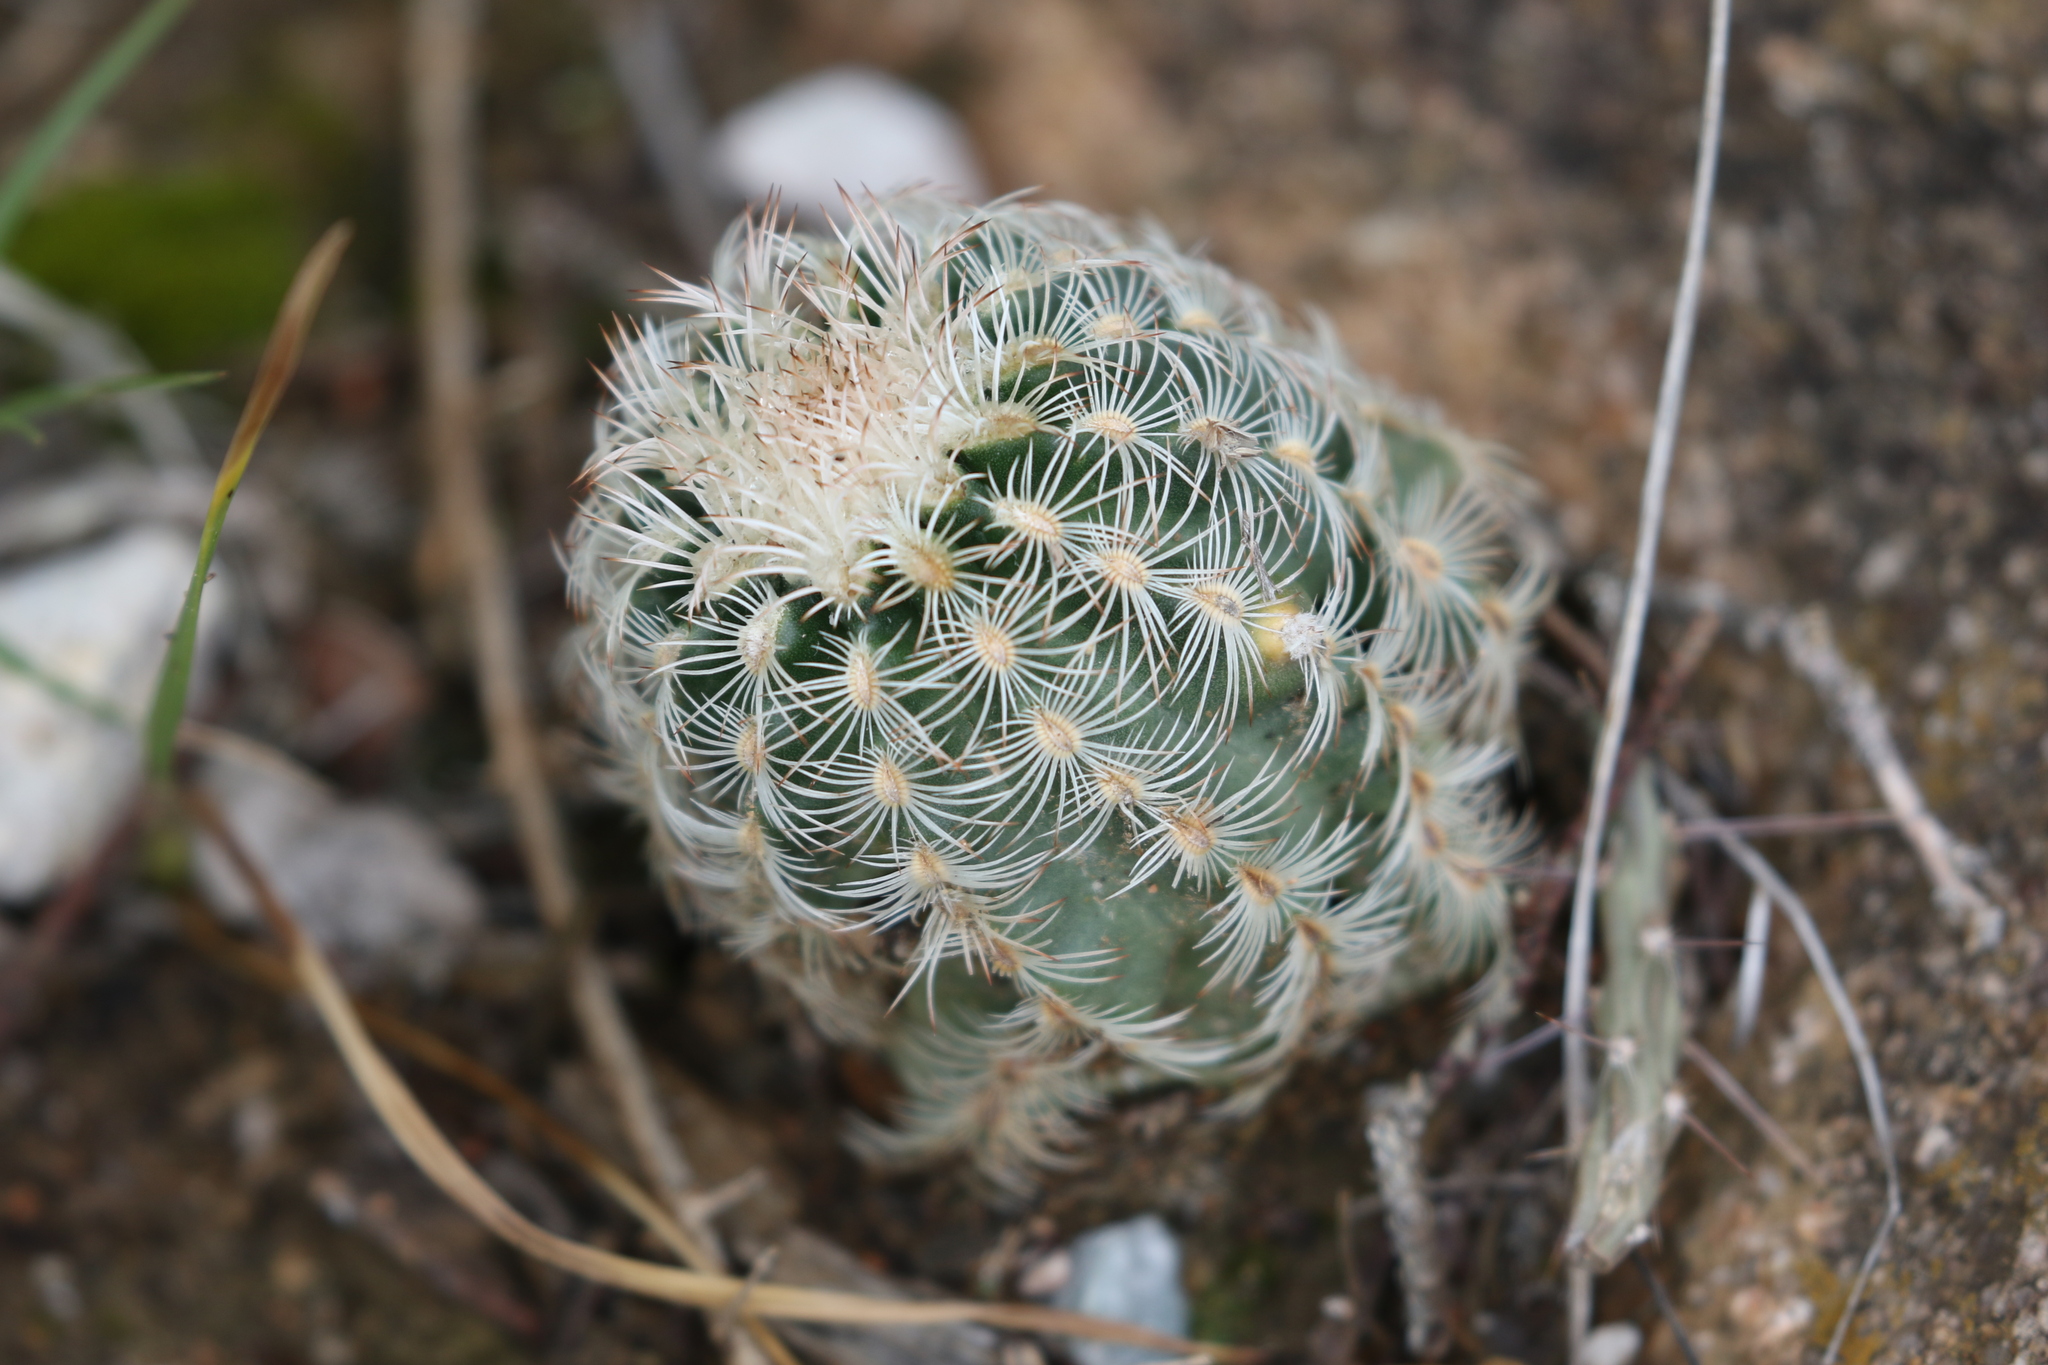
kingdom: Plantae
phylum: Tracheophyta
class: Magnoliopsida
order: Caryophyllales
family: Cactaceae
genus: Echinocereus
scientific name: Echinocereus reichenbachii
